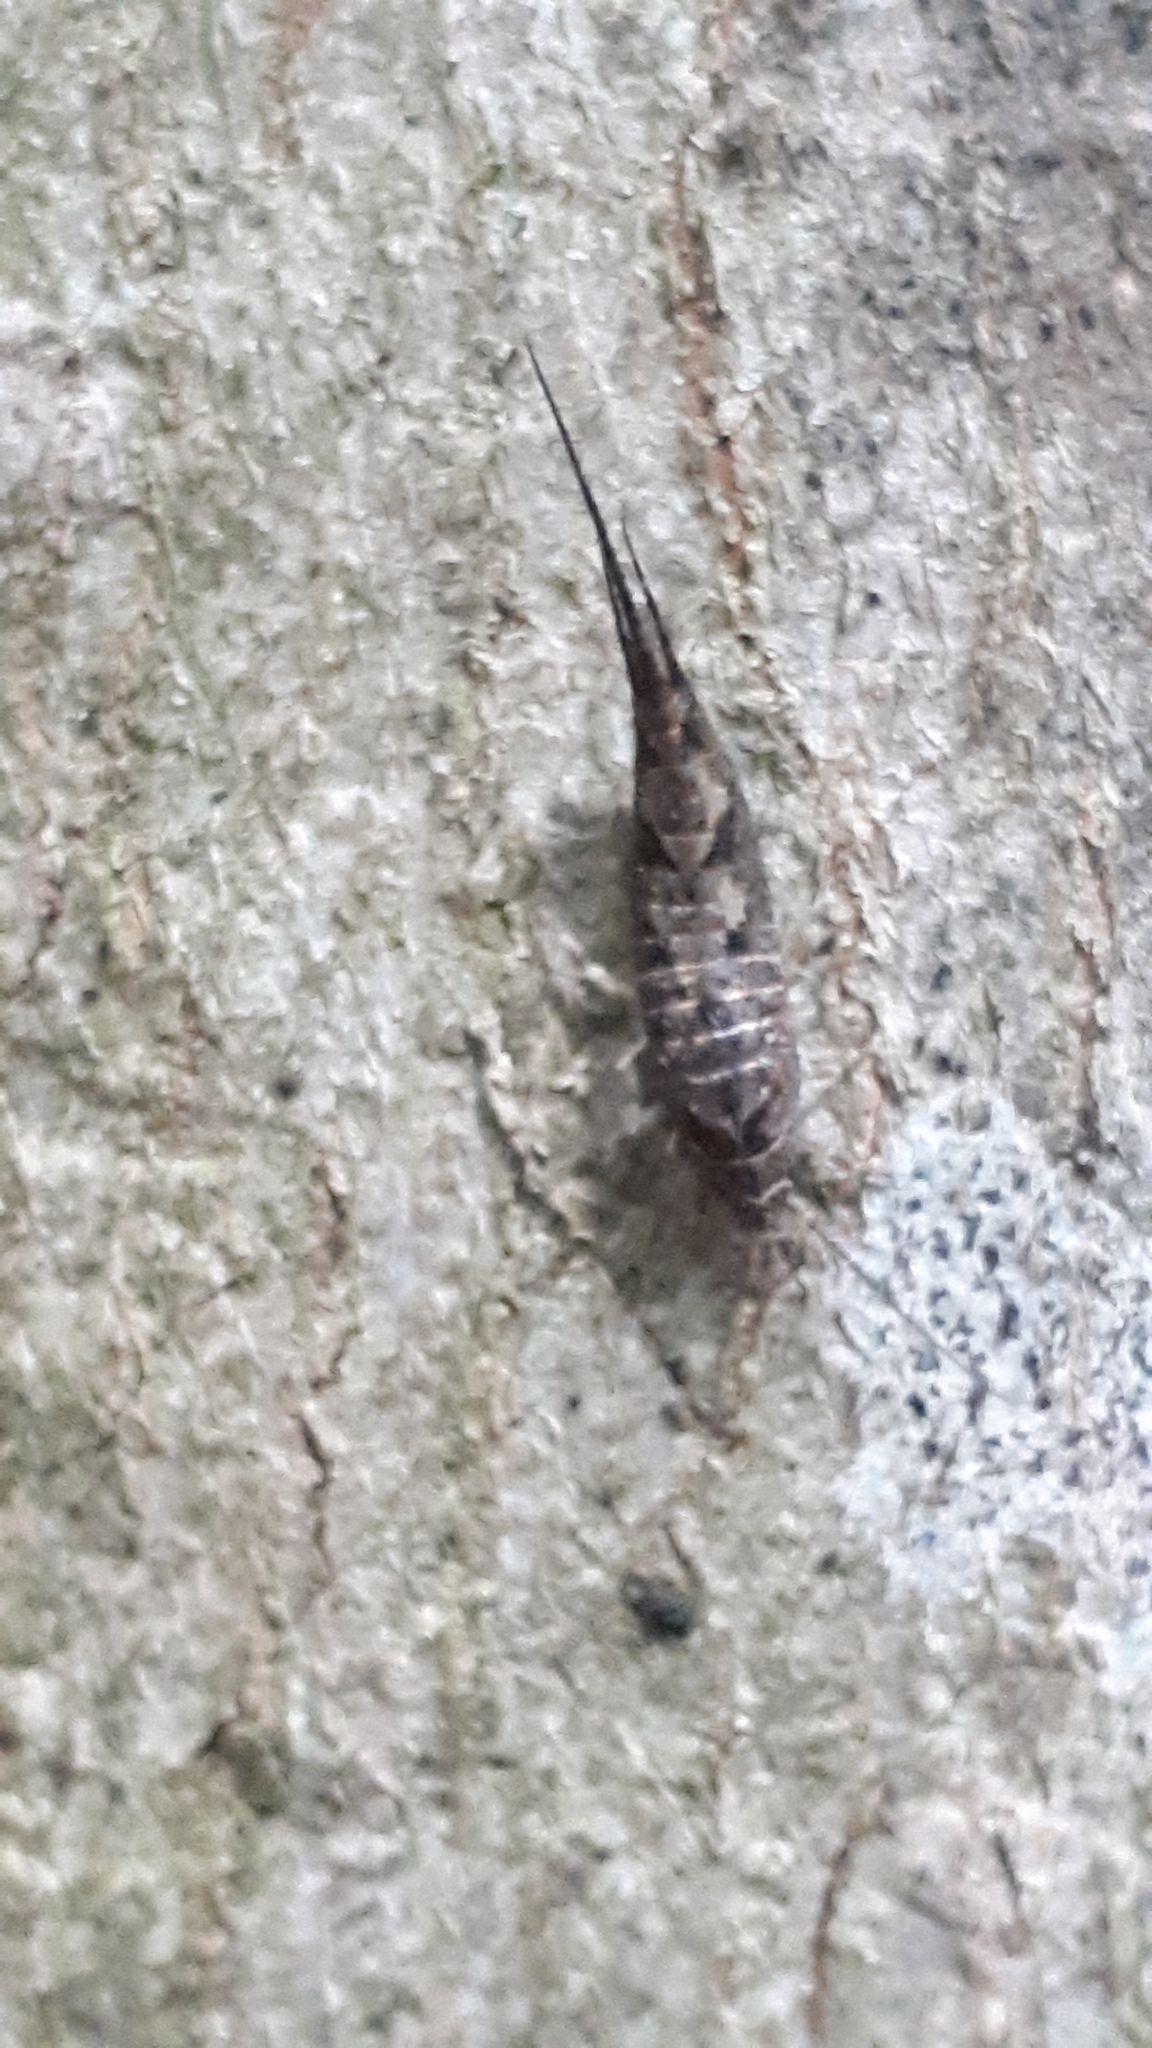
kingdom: Animalia
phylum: Arthropoda
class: Insecta
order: Archaeognatha
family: Machilidae
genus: Lepismachilis
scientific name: Lepismachilis y-signata
